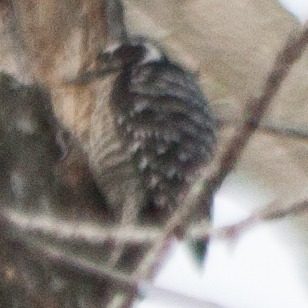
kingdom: Animalia
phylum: Chordata
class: Aves
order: Piciformes
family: Picidae
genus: Dryobates
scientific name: Dryobates nuttallii
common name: Nuttall's woodpecker
